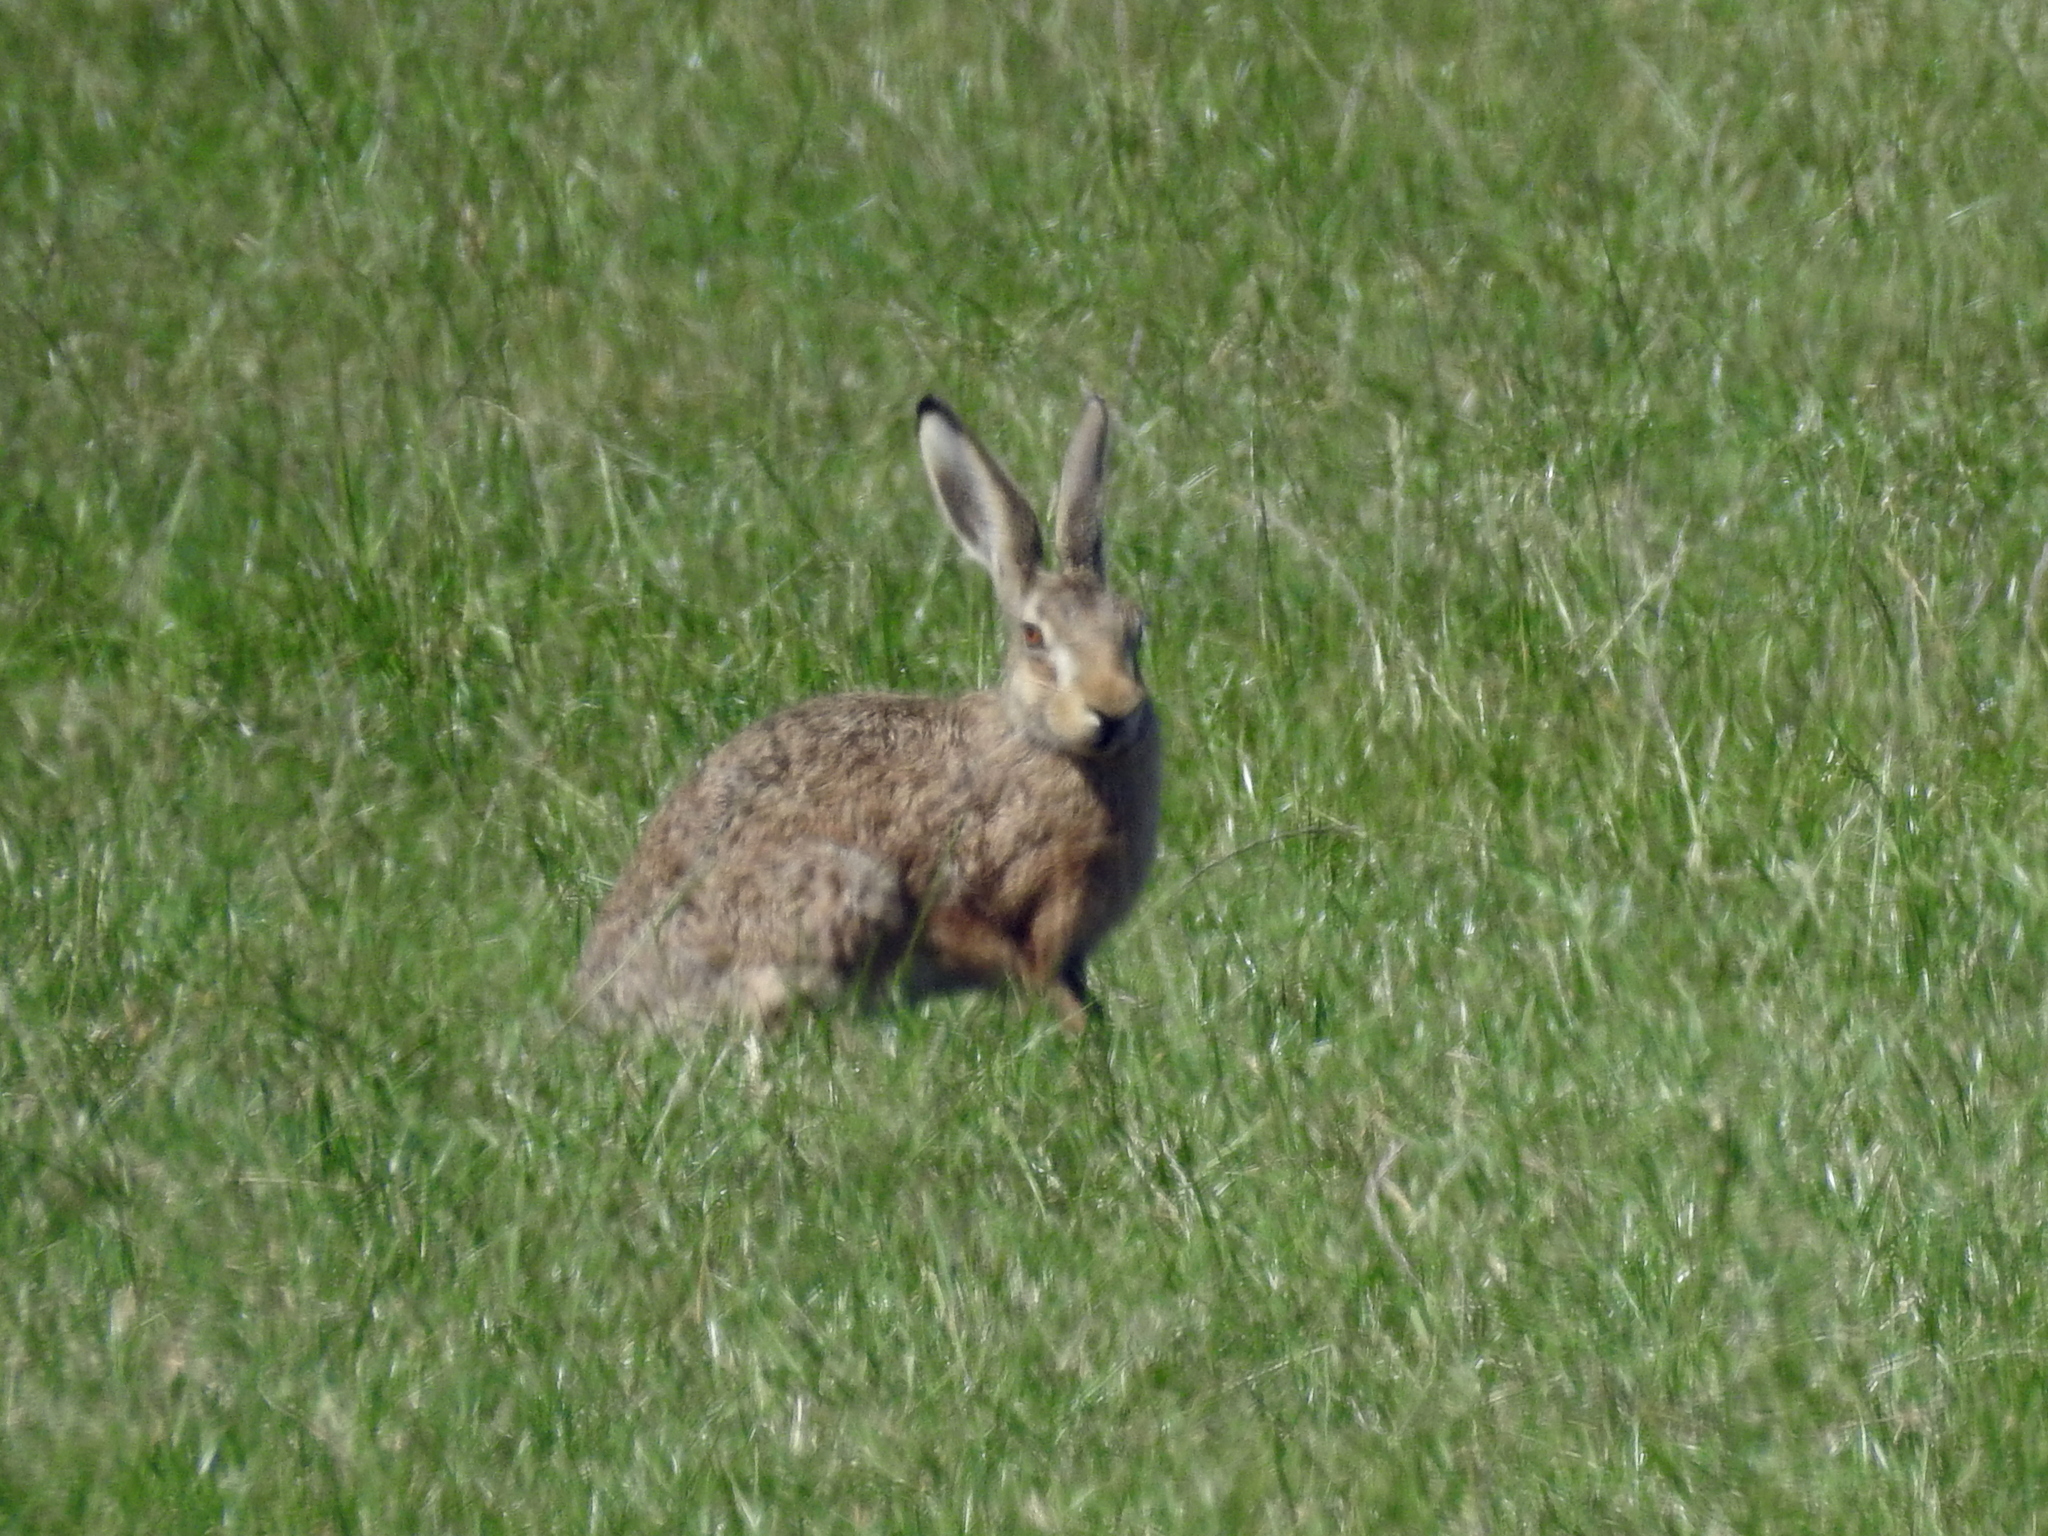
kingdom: Animalia
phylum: Chordata
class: Mammalia
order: Lagomorpha
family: Leporidae
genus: Lepus
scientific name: Lepus europaeus
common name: European hare
